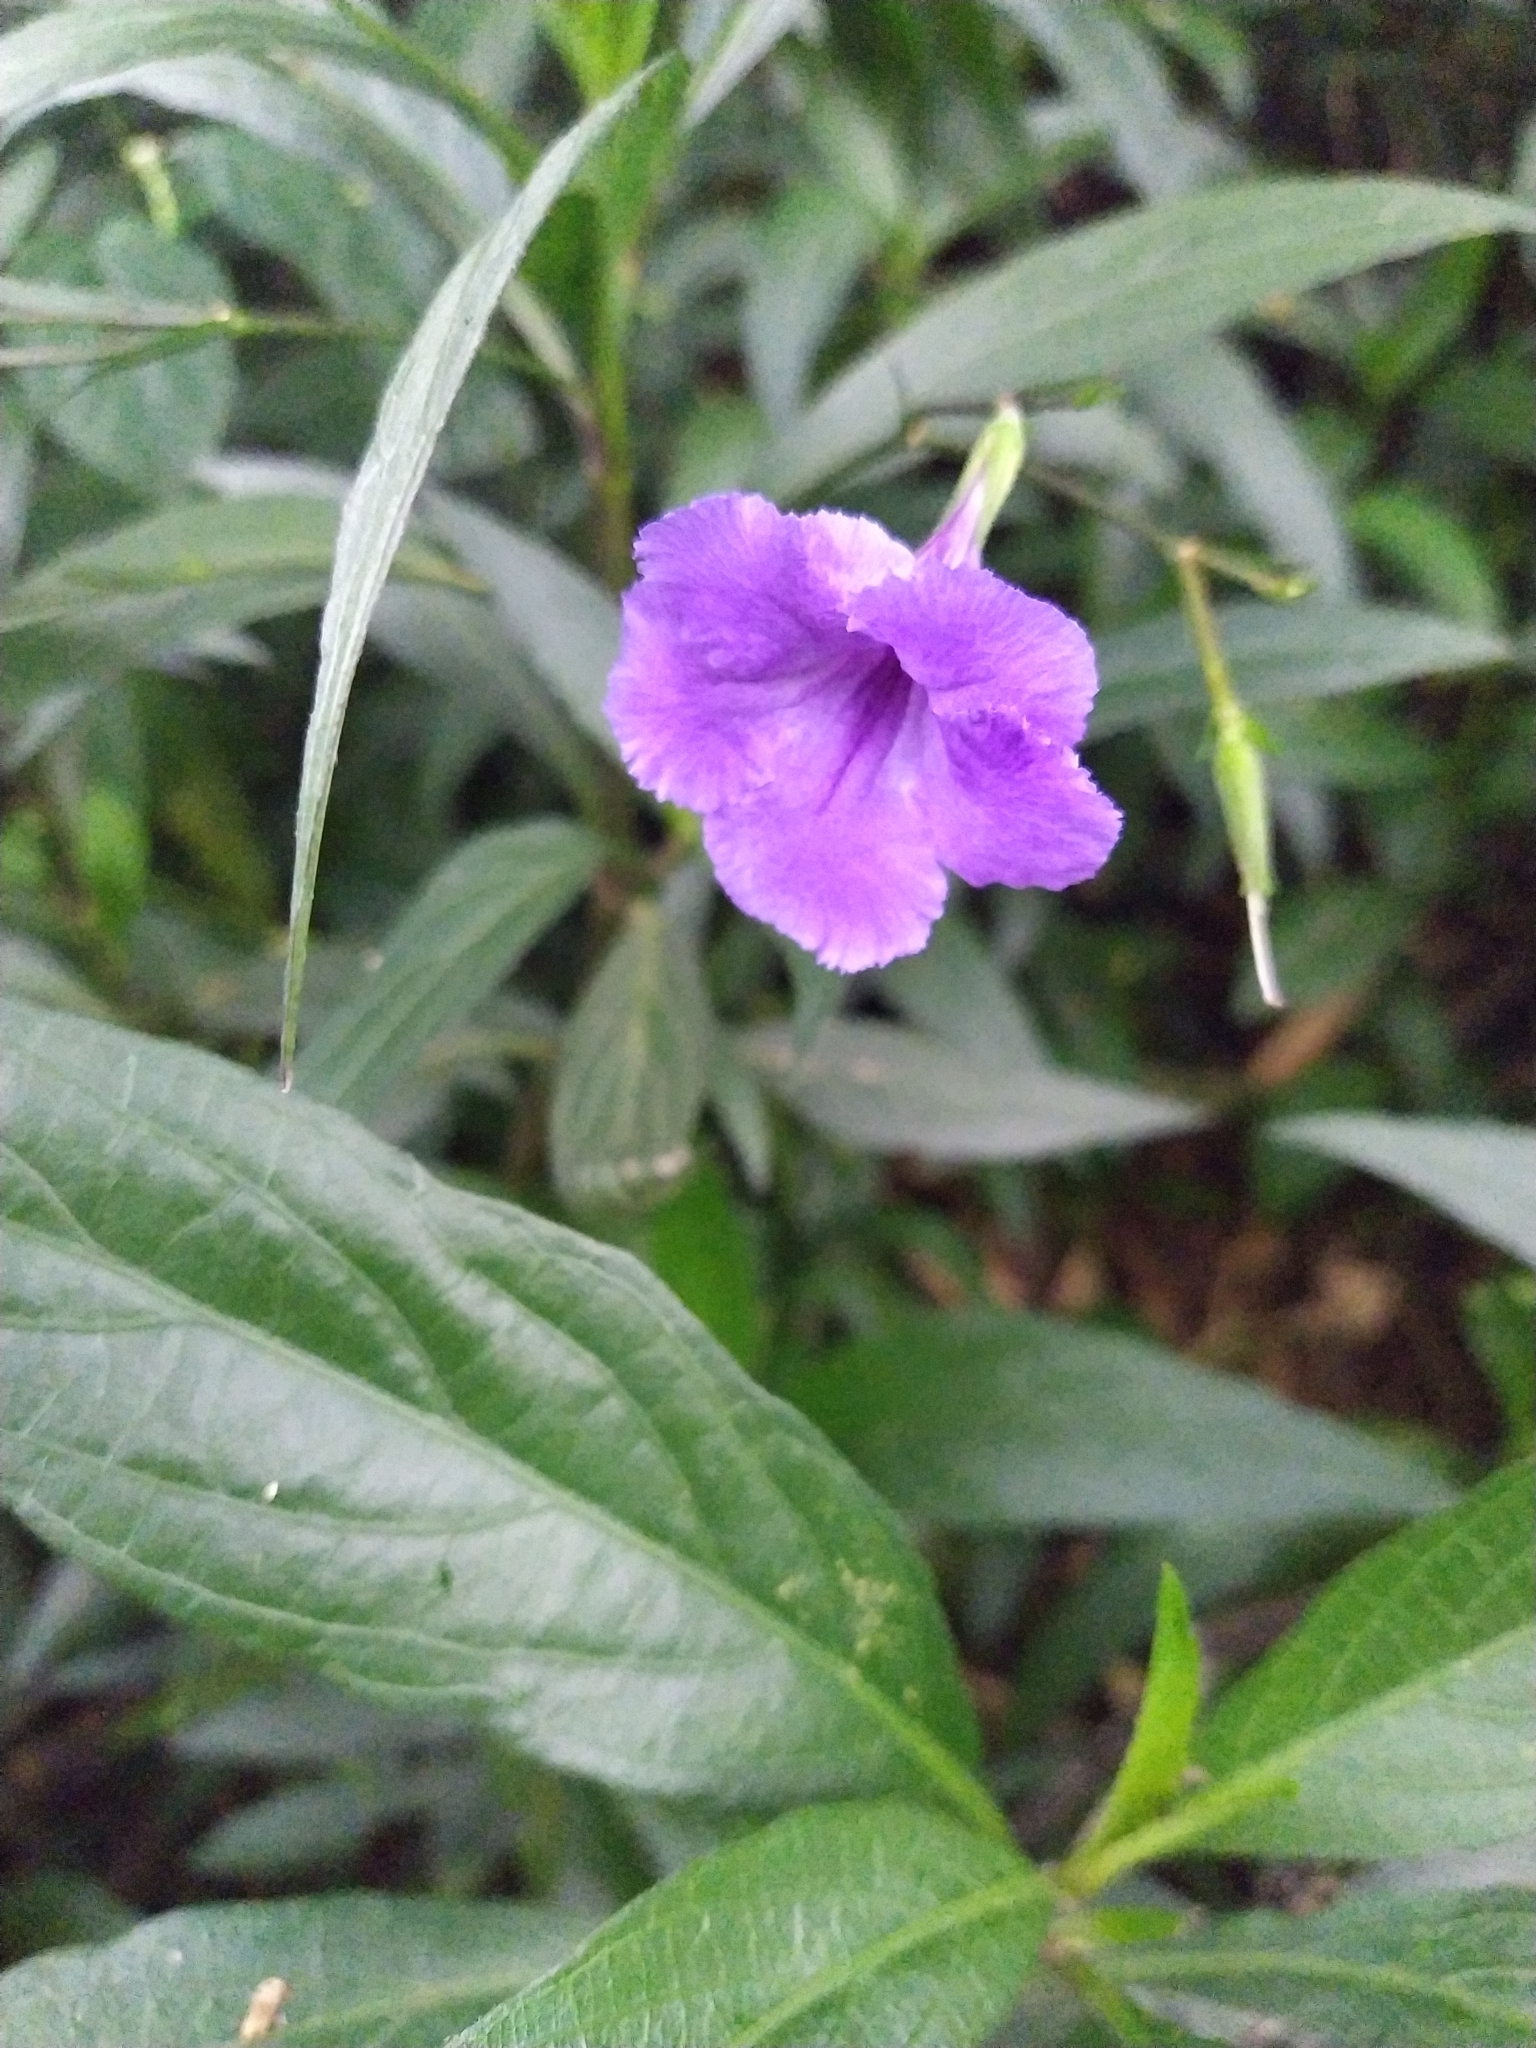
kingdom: Plantae
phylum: Tracheophyta
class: Magnoliopsida
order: Lamiales
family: Acanthaceae
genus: Ruellia
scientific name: Ruellia simplex
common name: Softseed wild petunia
